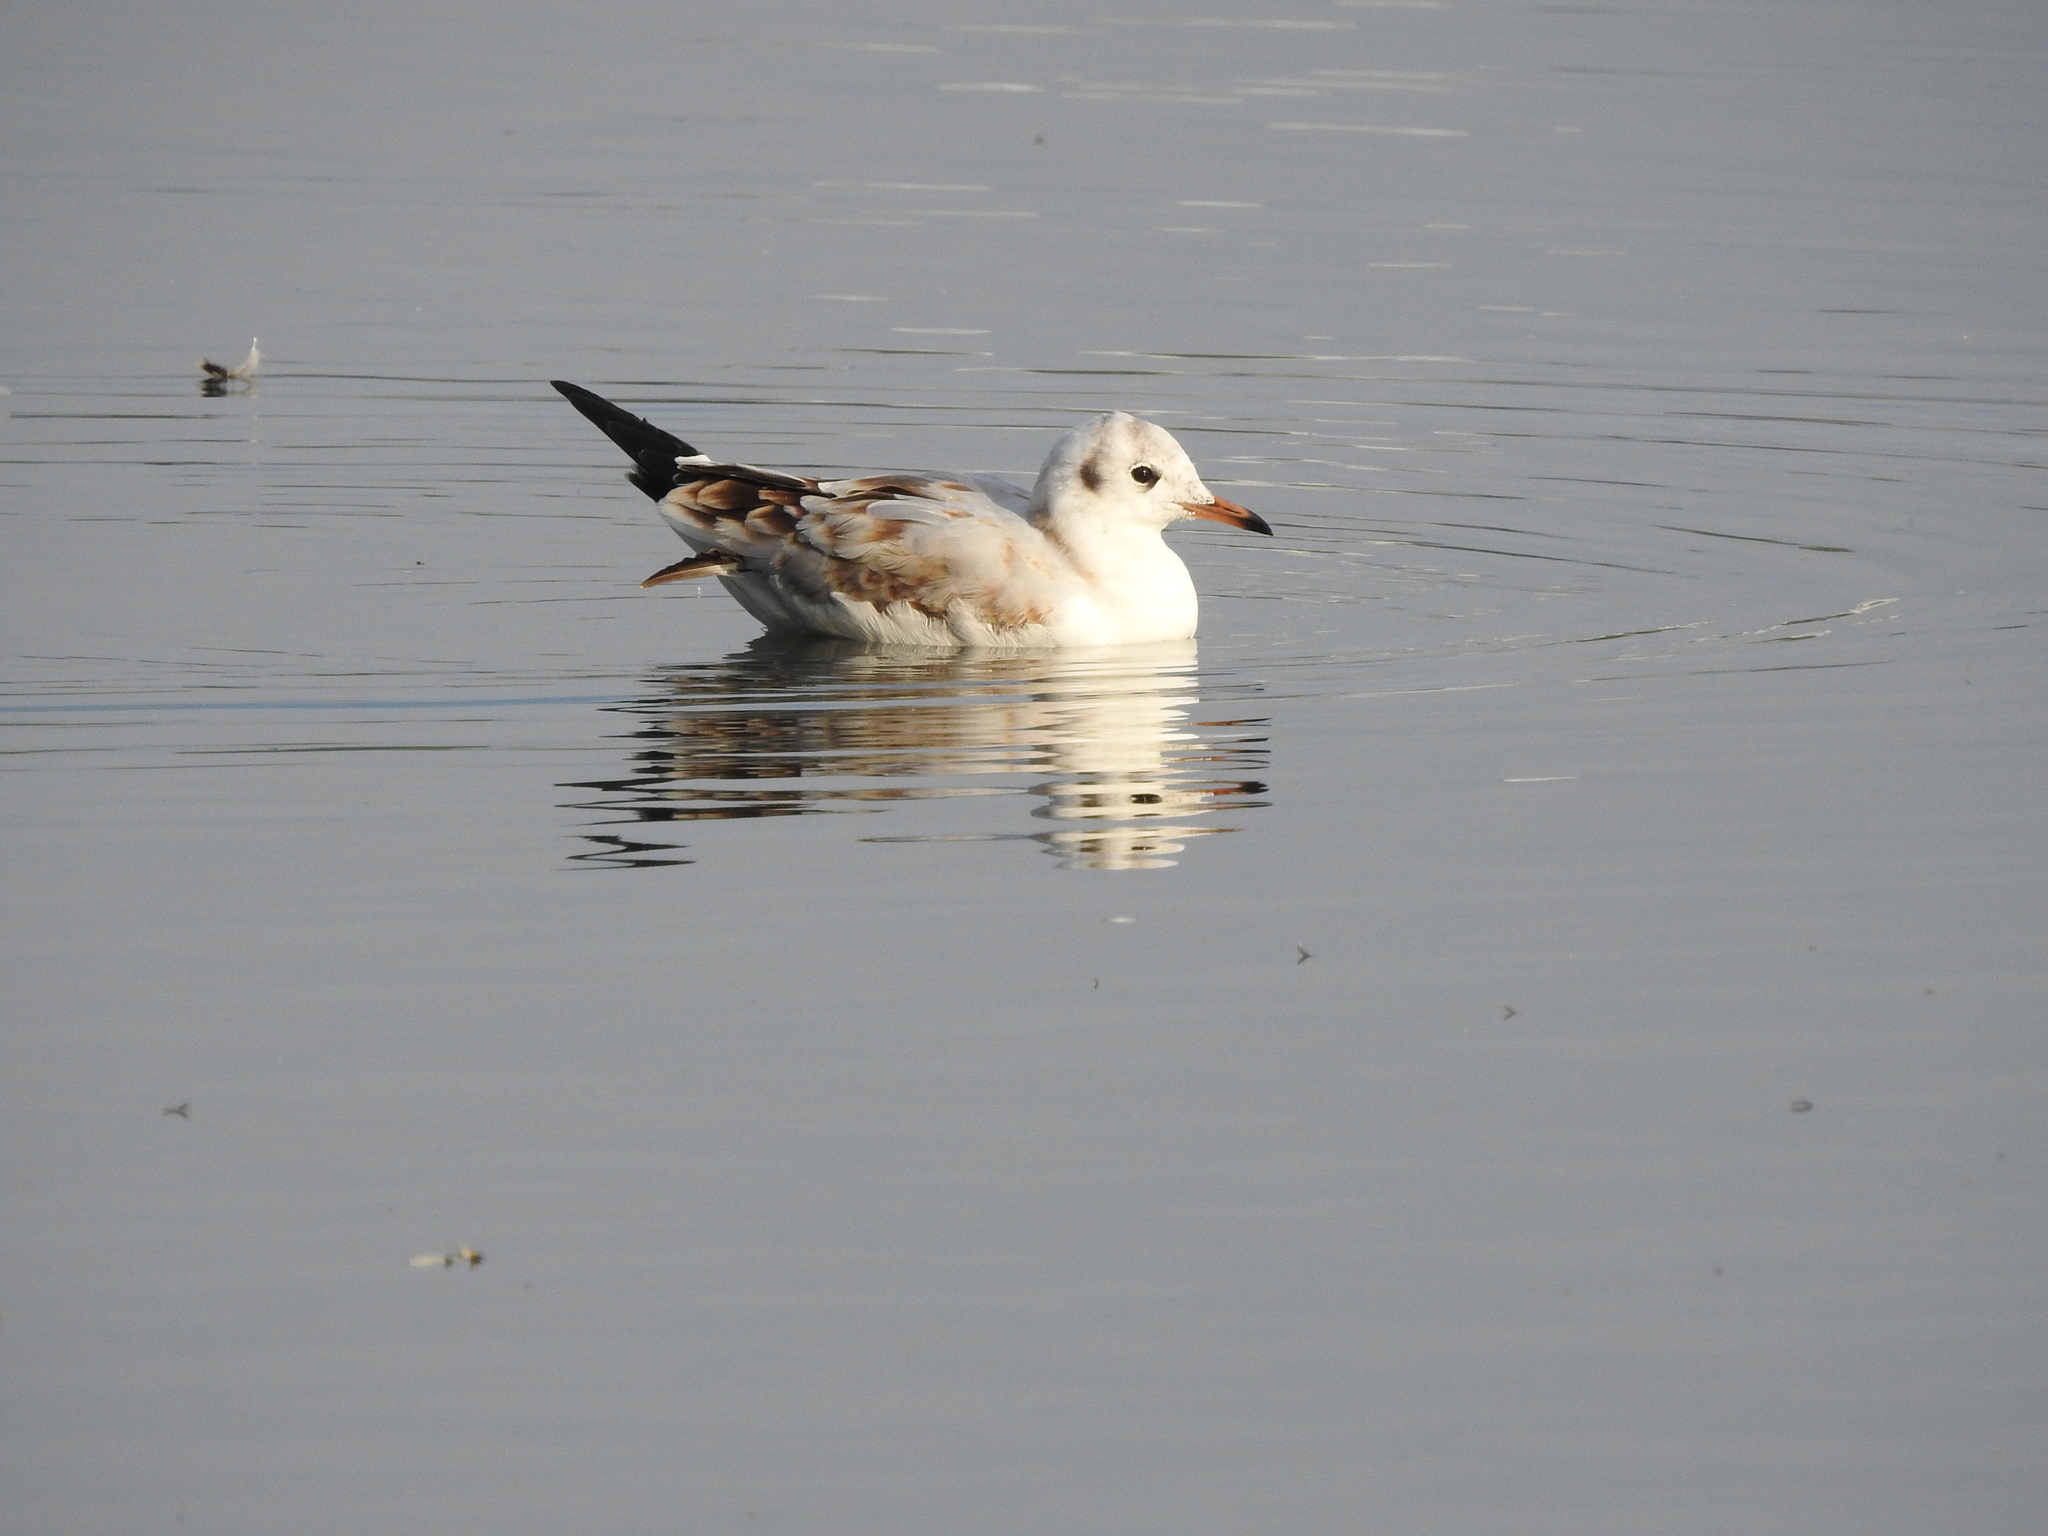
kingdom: Animalia
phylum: Chordata
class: Aves
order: Charadriiformes
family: Laridae
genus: Chroicocephalus
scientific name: Chroicocephalus ridibundus
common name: Black-headed gull
